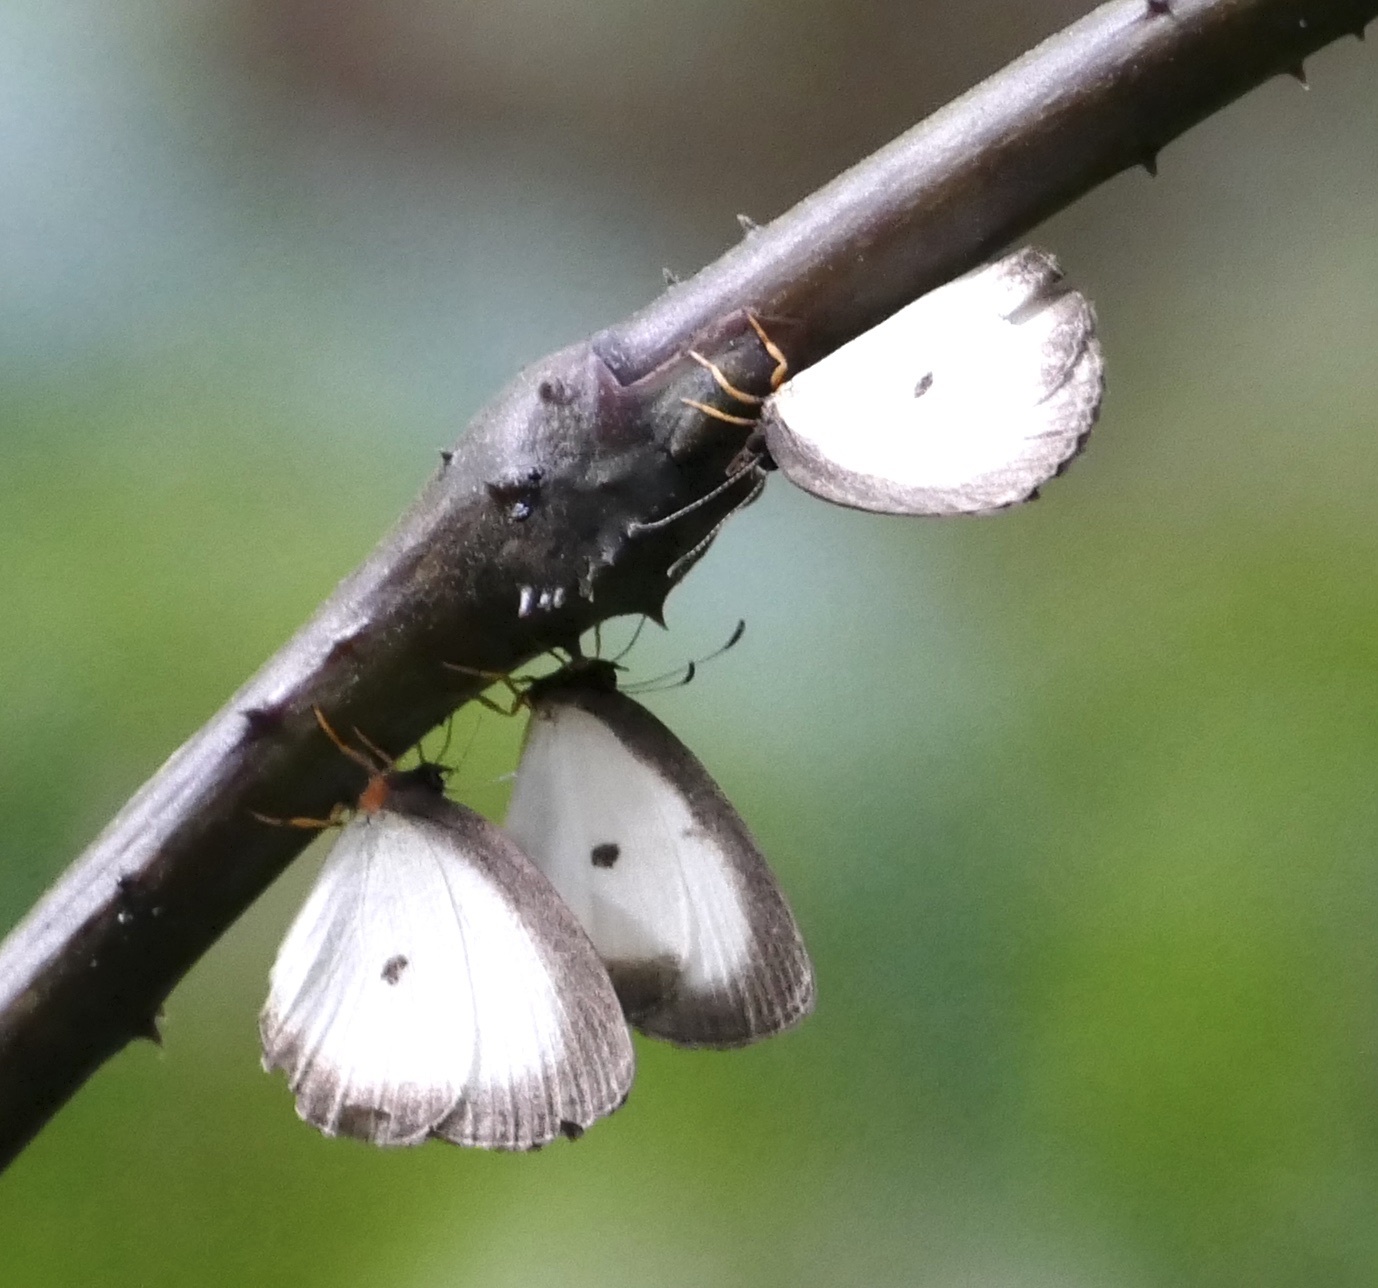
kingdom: Animalia
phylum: Arthropoda
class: Insecta
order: Lepidoptera
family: Lycaenidae
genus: Larinopoda
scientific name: Larinopoda aspidos
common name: Nigerian pierid blue
